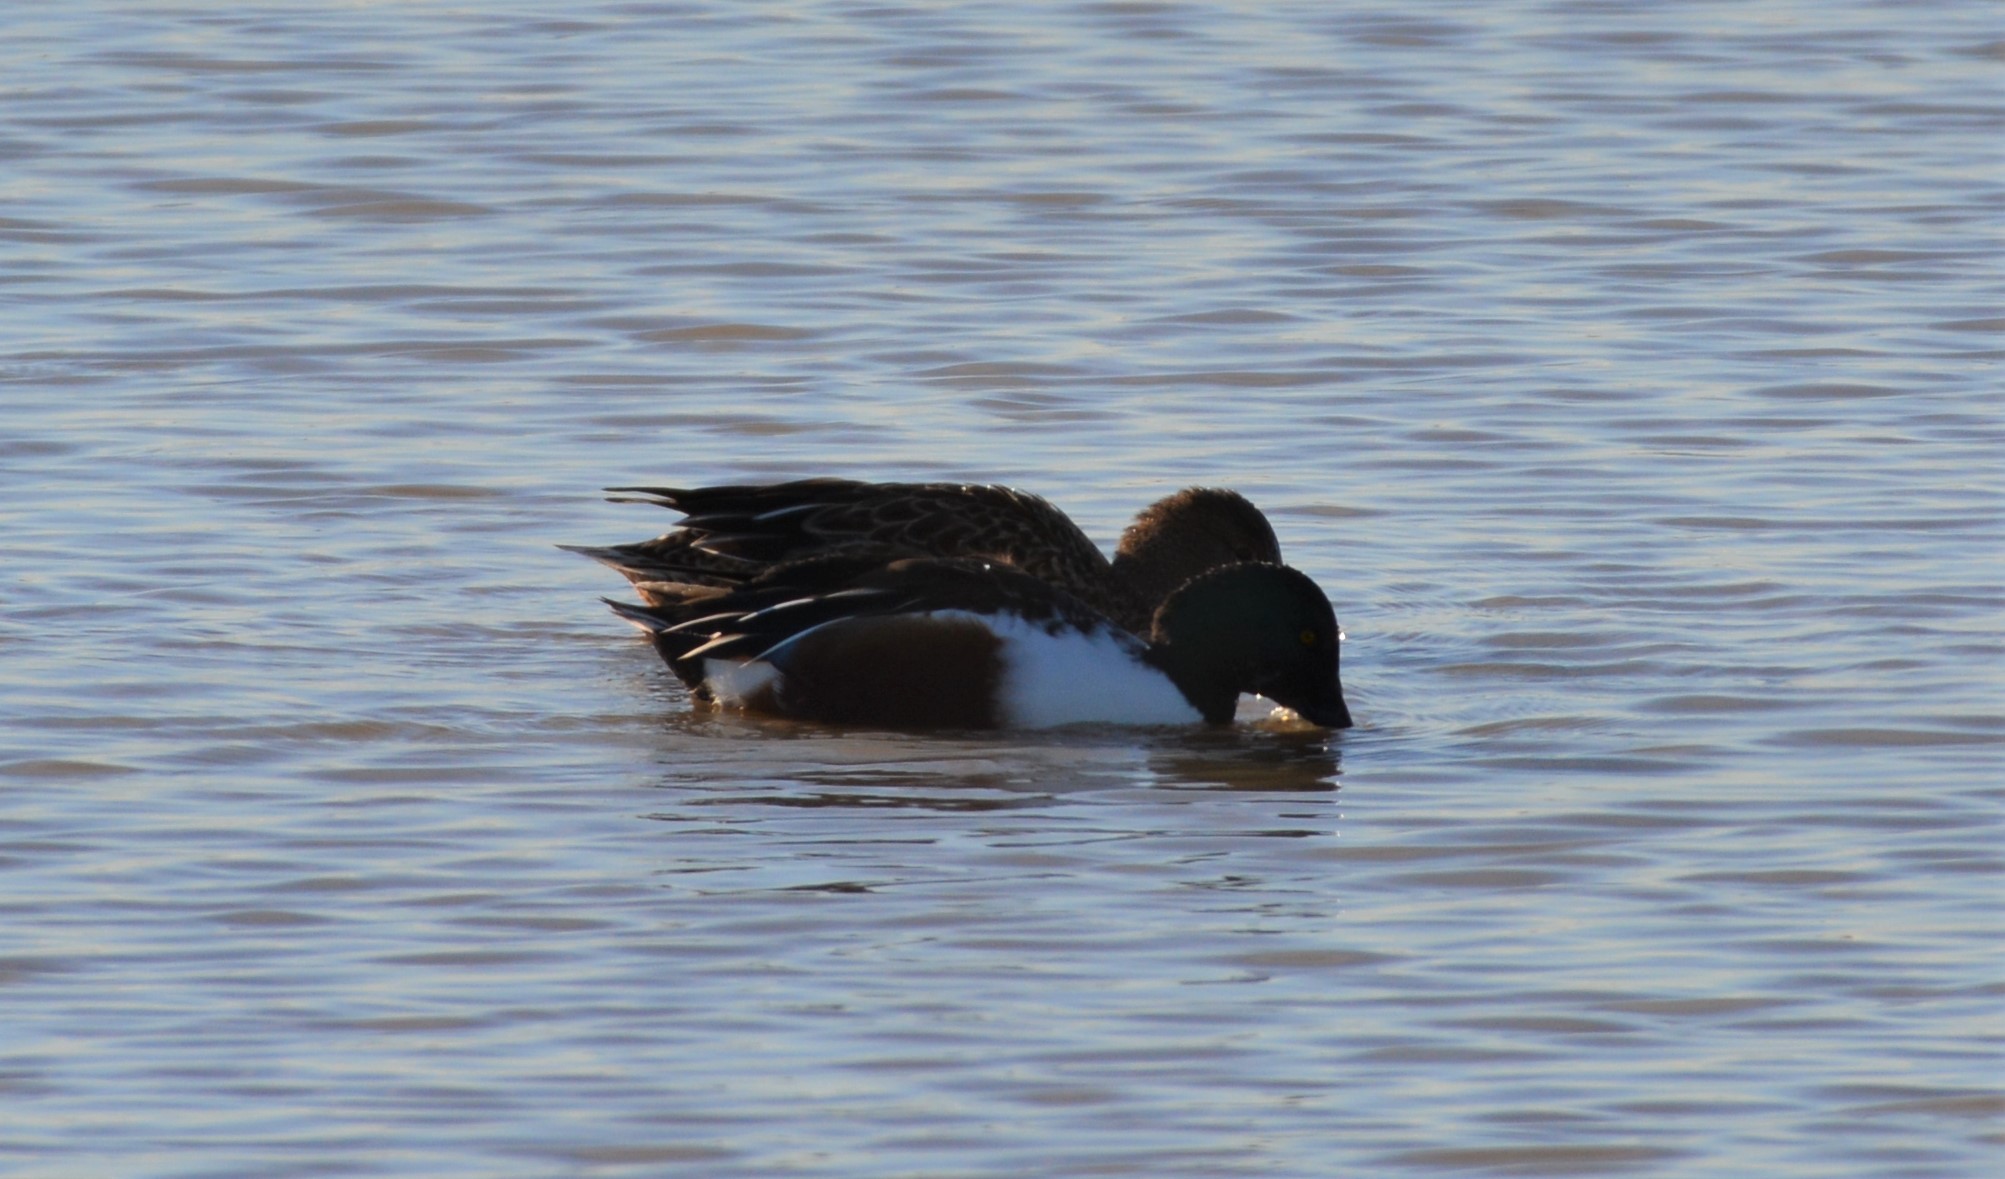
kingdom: Animalia
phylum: Chordata
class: Aves
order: Anseriformes
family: Anatidae
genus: Spatula
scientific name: Spatula clypeata
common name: Northern shoveler
